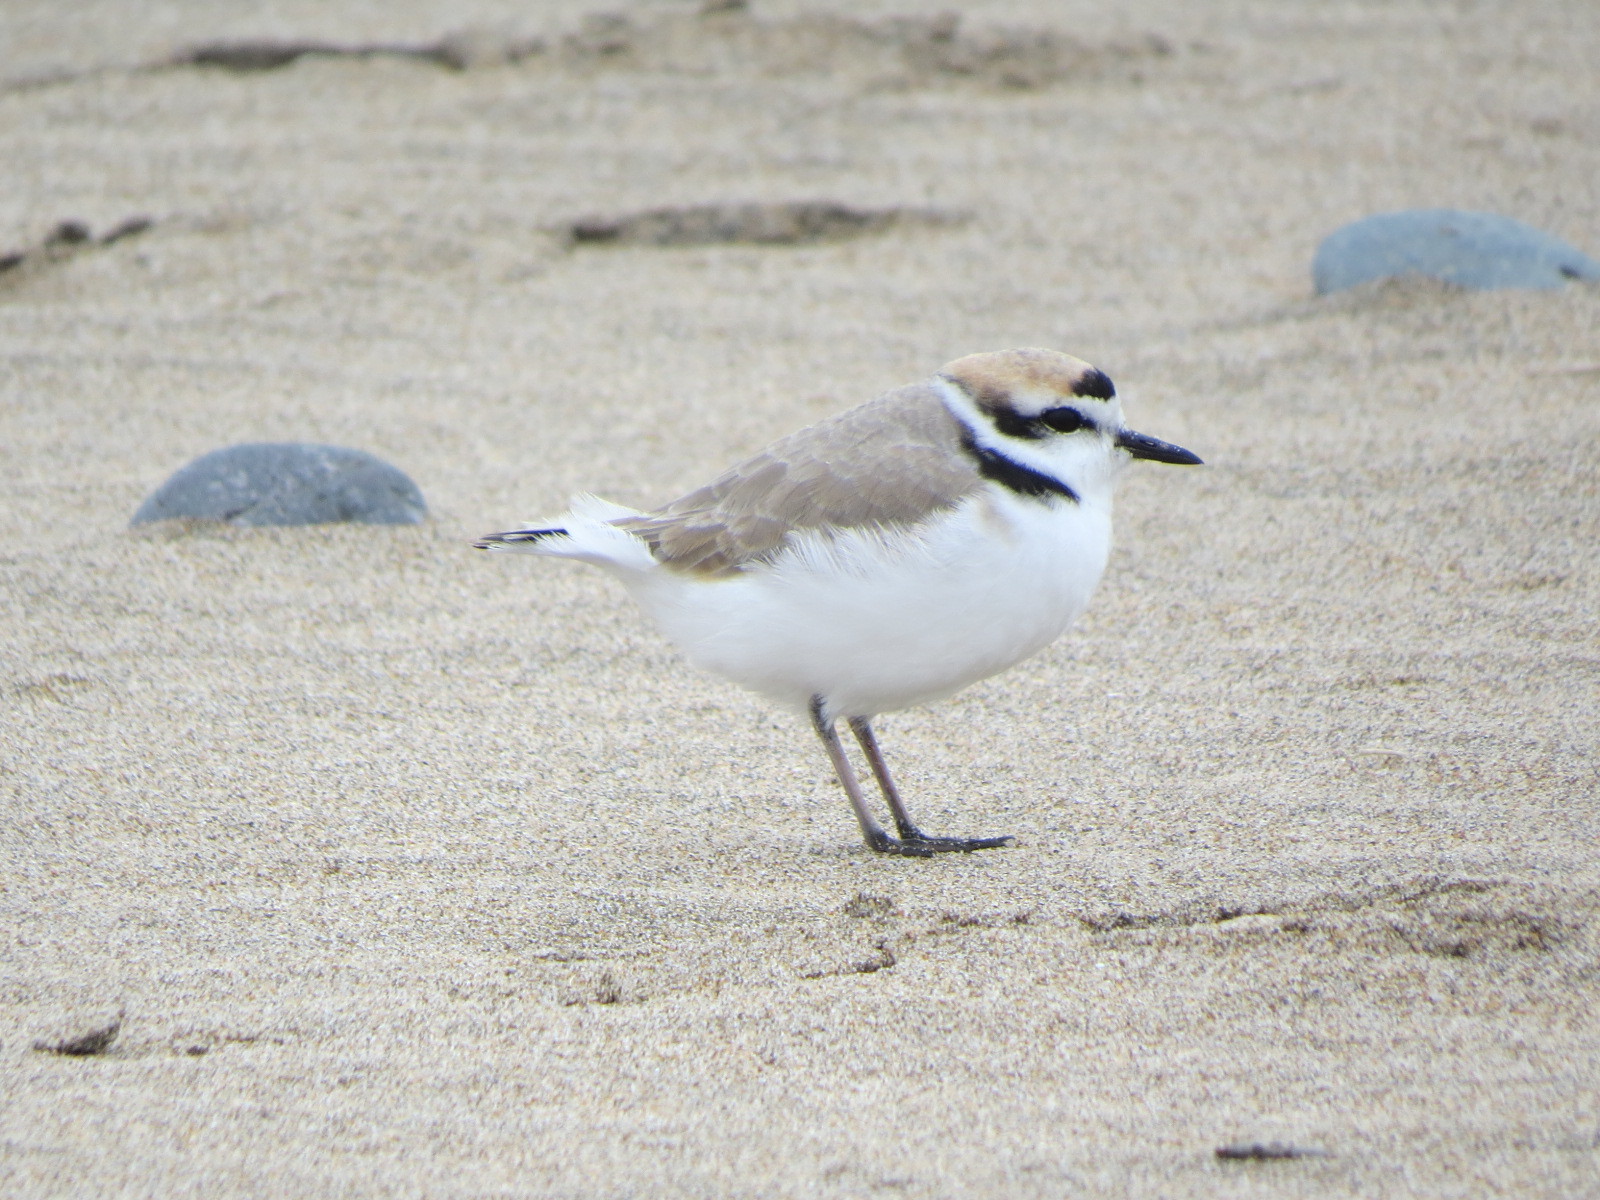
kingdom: Animalia
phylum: Chordata
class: Aves
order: Charadriiformes
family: Charadriidae
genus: Anarhynchus
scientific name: Anarhynchus
